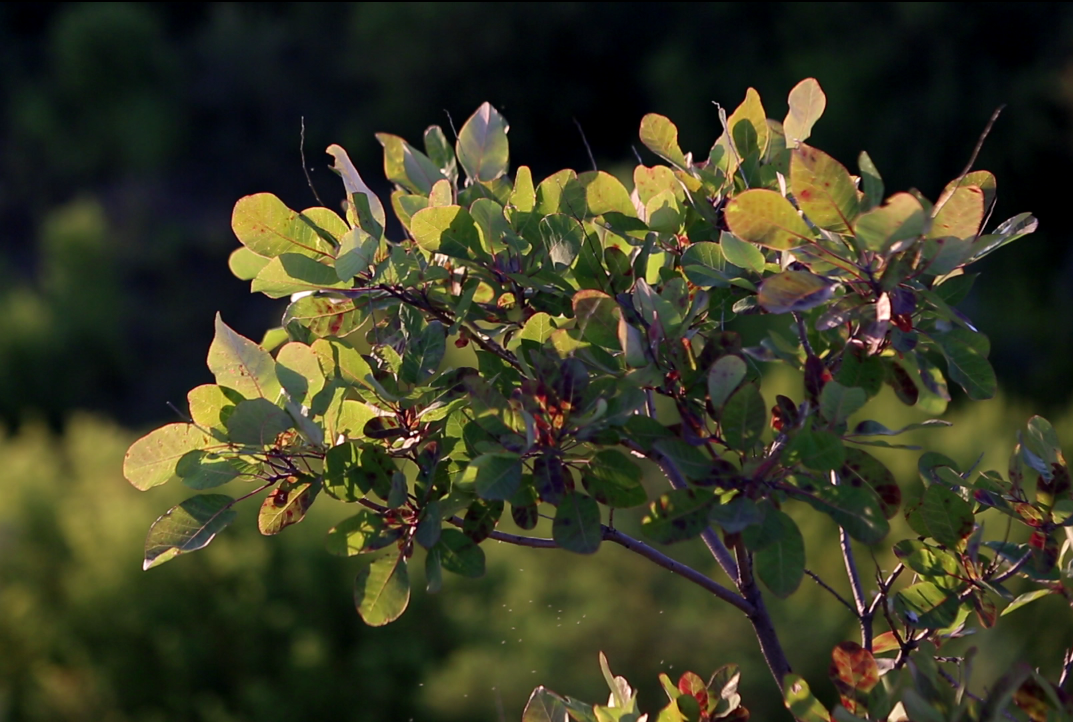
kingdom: Plantae
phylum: Tracheophyta
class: Magnoliopsida
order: Sapindales
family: Anacardiaceae
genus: Cotinus
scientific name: Cotinus coggygria
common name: Smoke-tree
